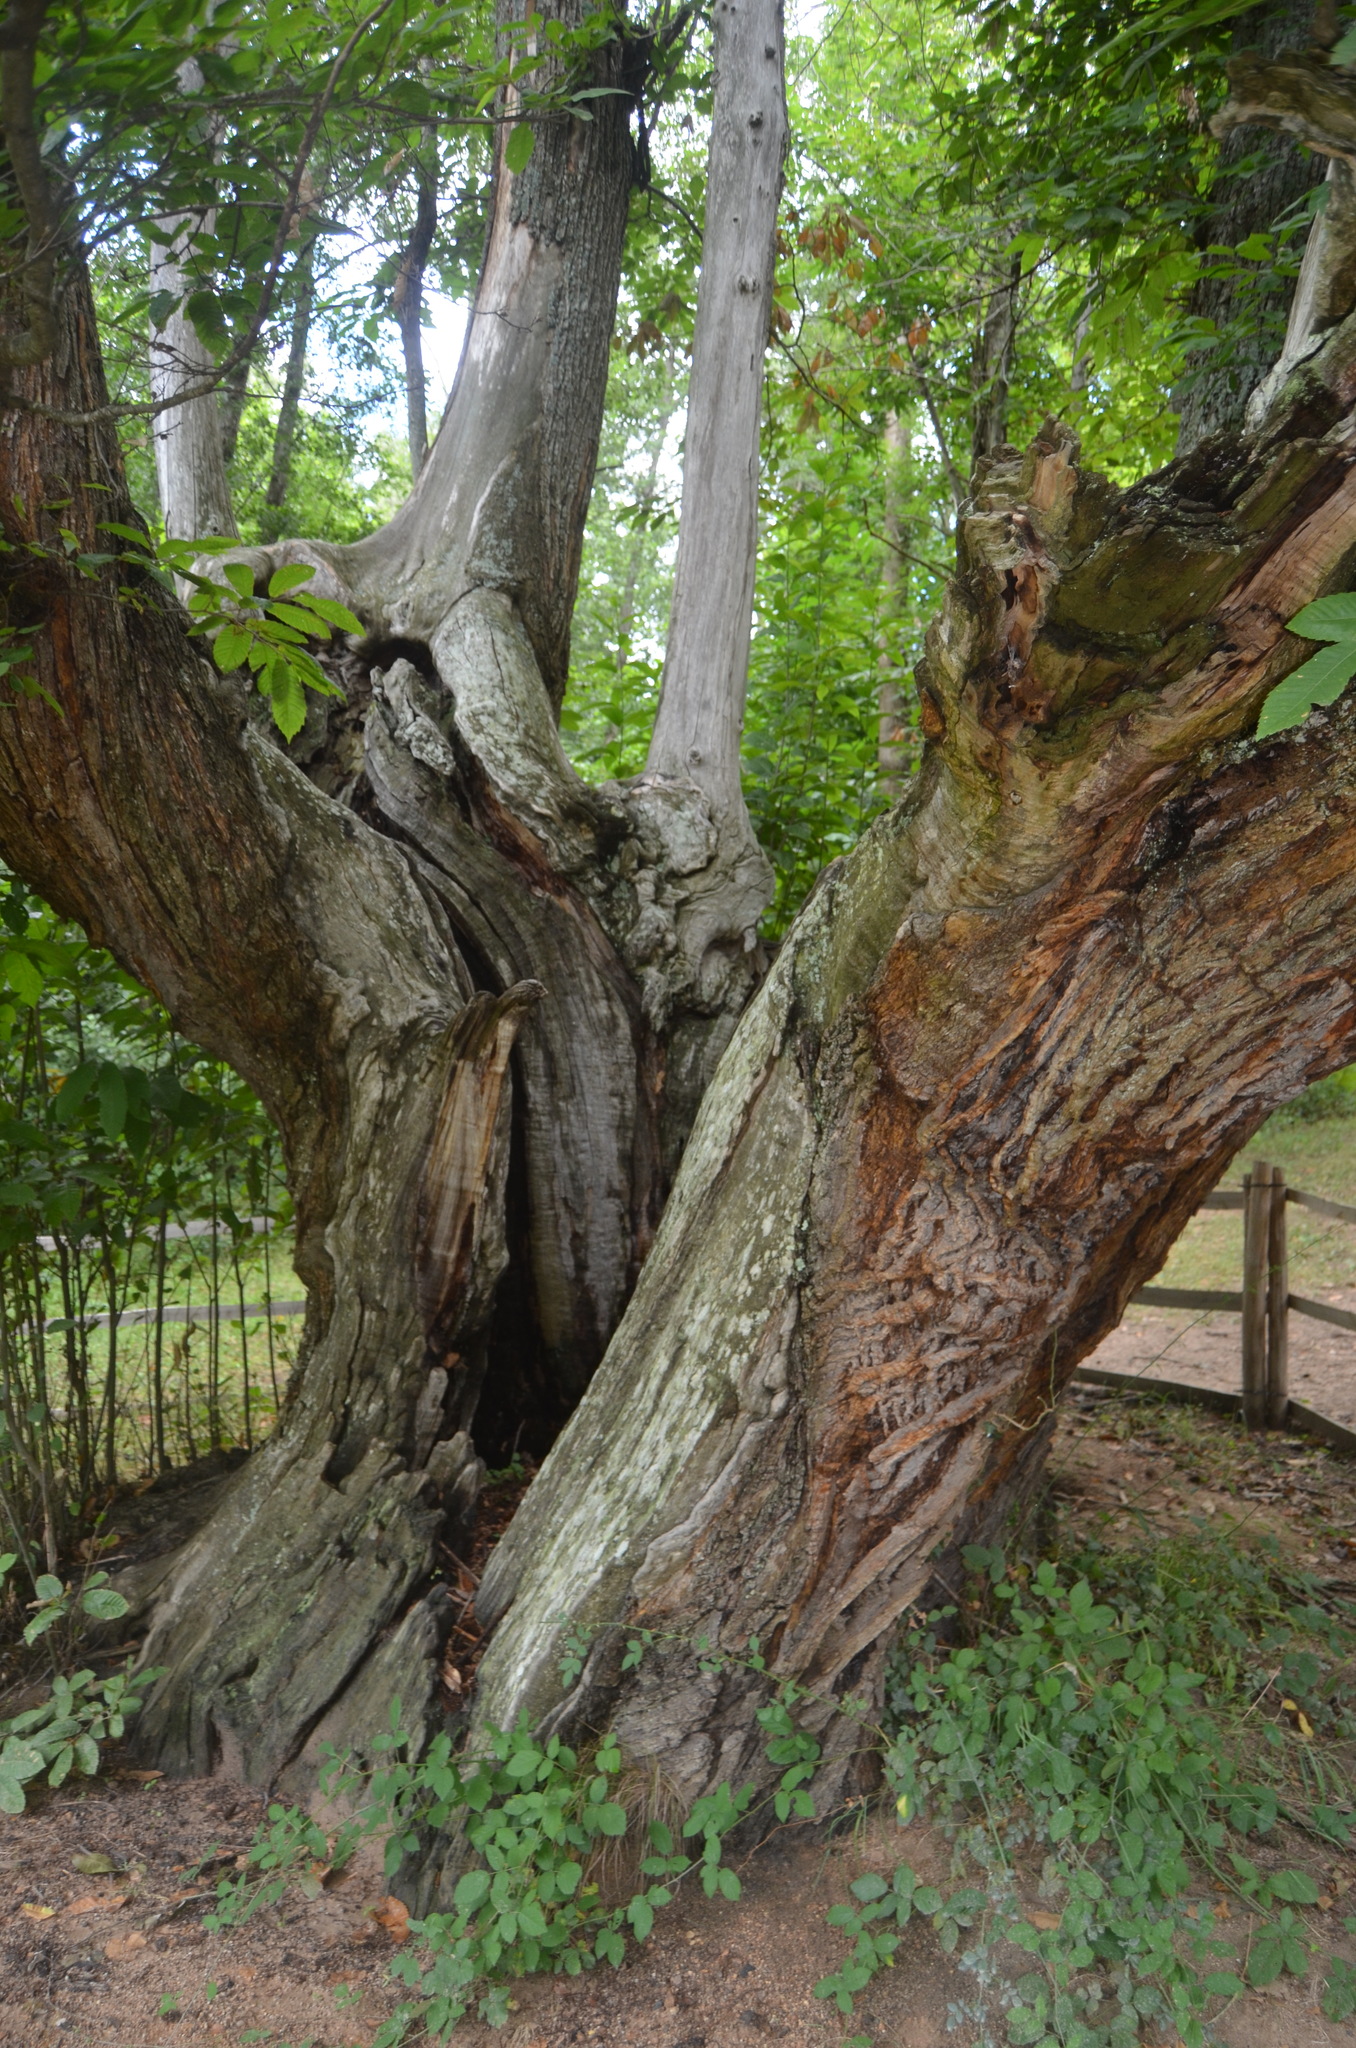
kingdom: Plantae
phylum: Tracheophyta
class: Magnoliopsida
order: Fagales
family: Fagaceae
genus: Castanea
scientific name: Castanea sativa
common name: Sweet chestnut
